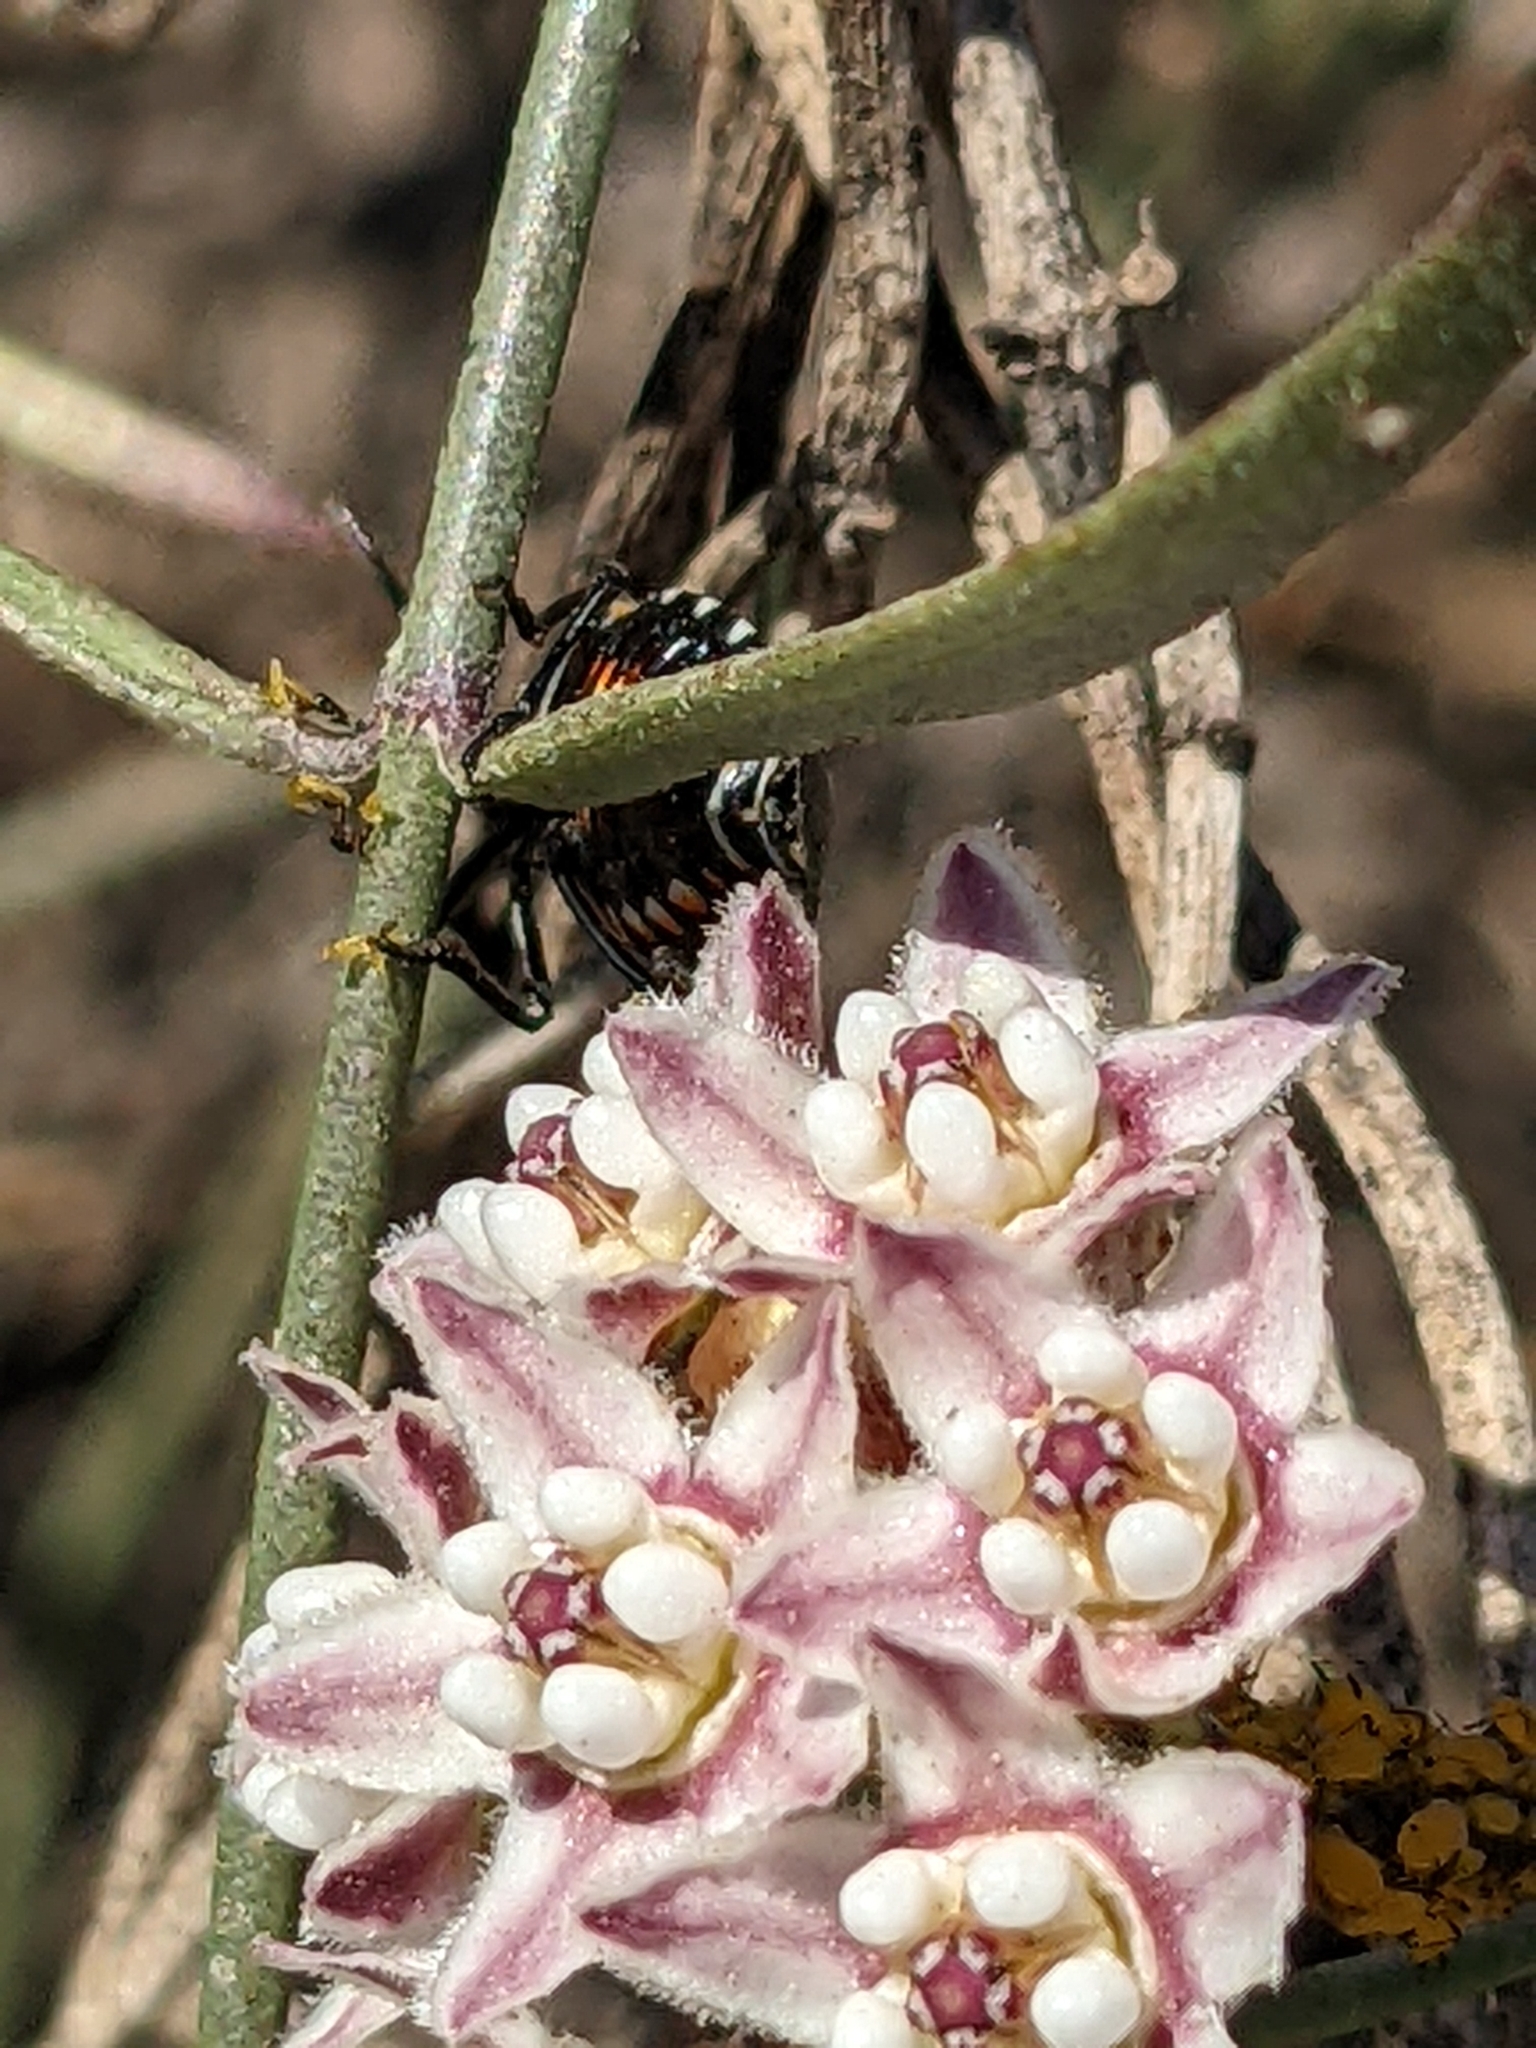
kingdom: Animalia
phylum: Arthropoda
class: Insecta
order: Hemiptera
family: Pentatomidae
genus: Murgantia
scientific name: Murgantia histrionica
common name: Harlequin bug
